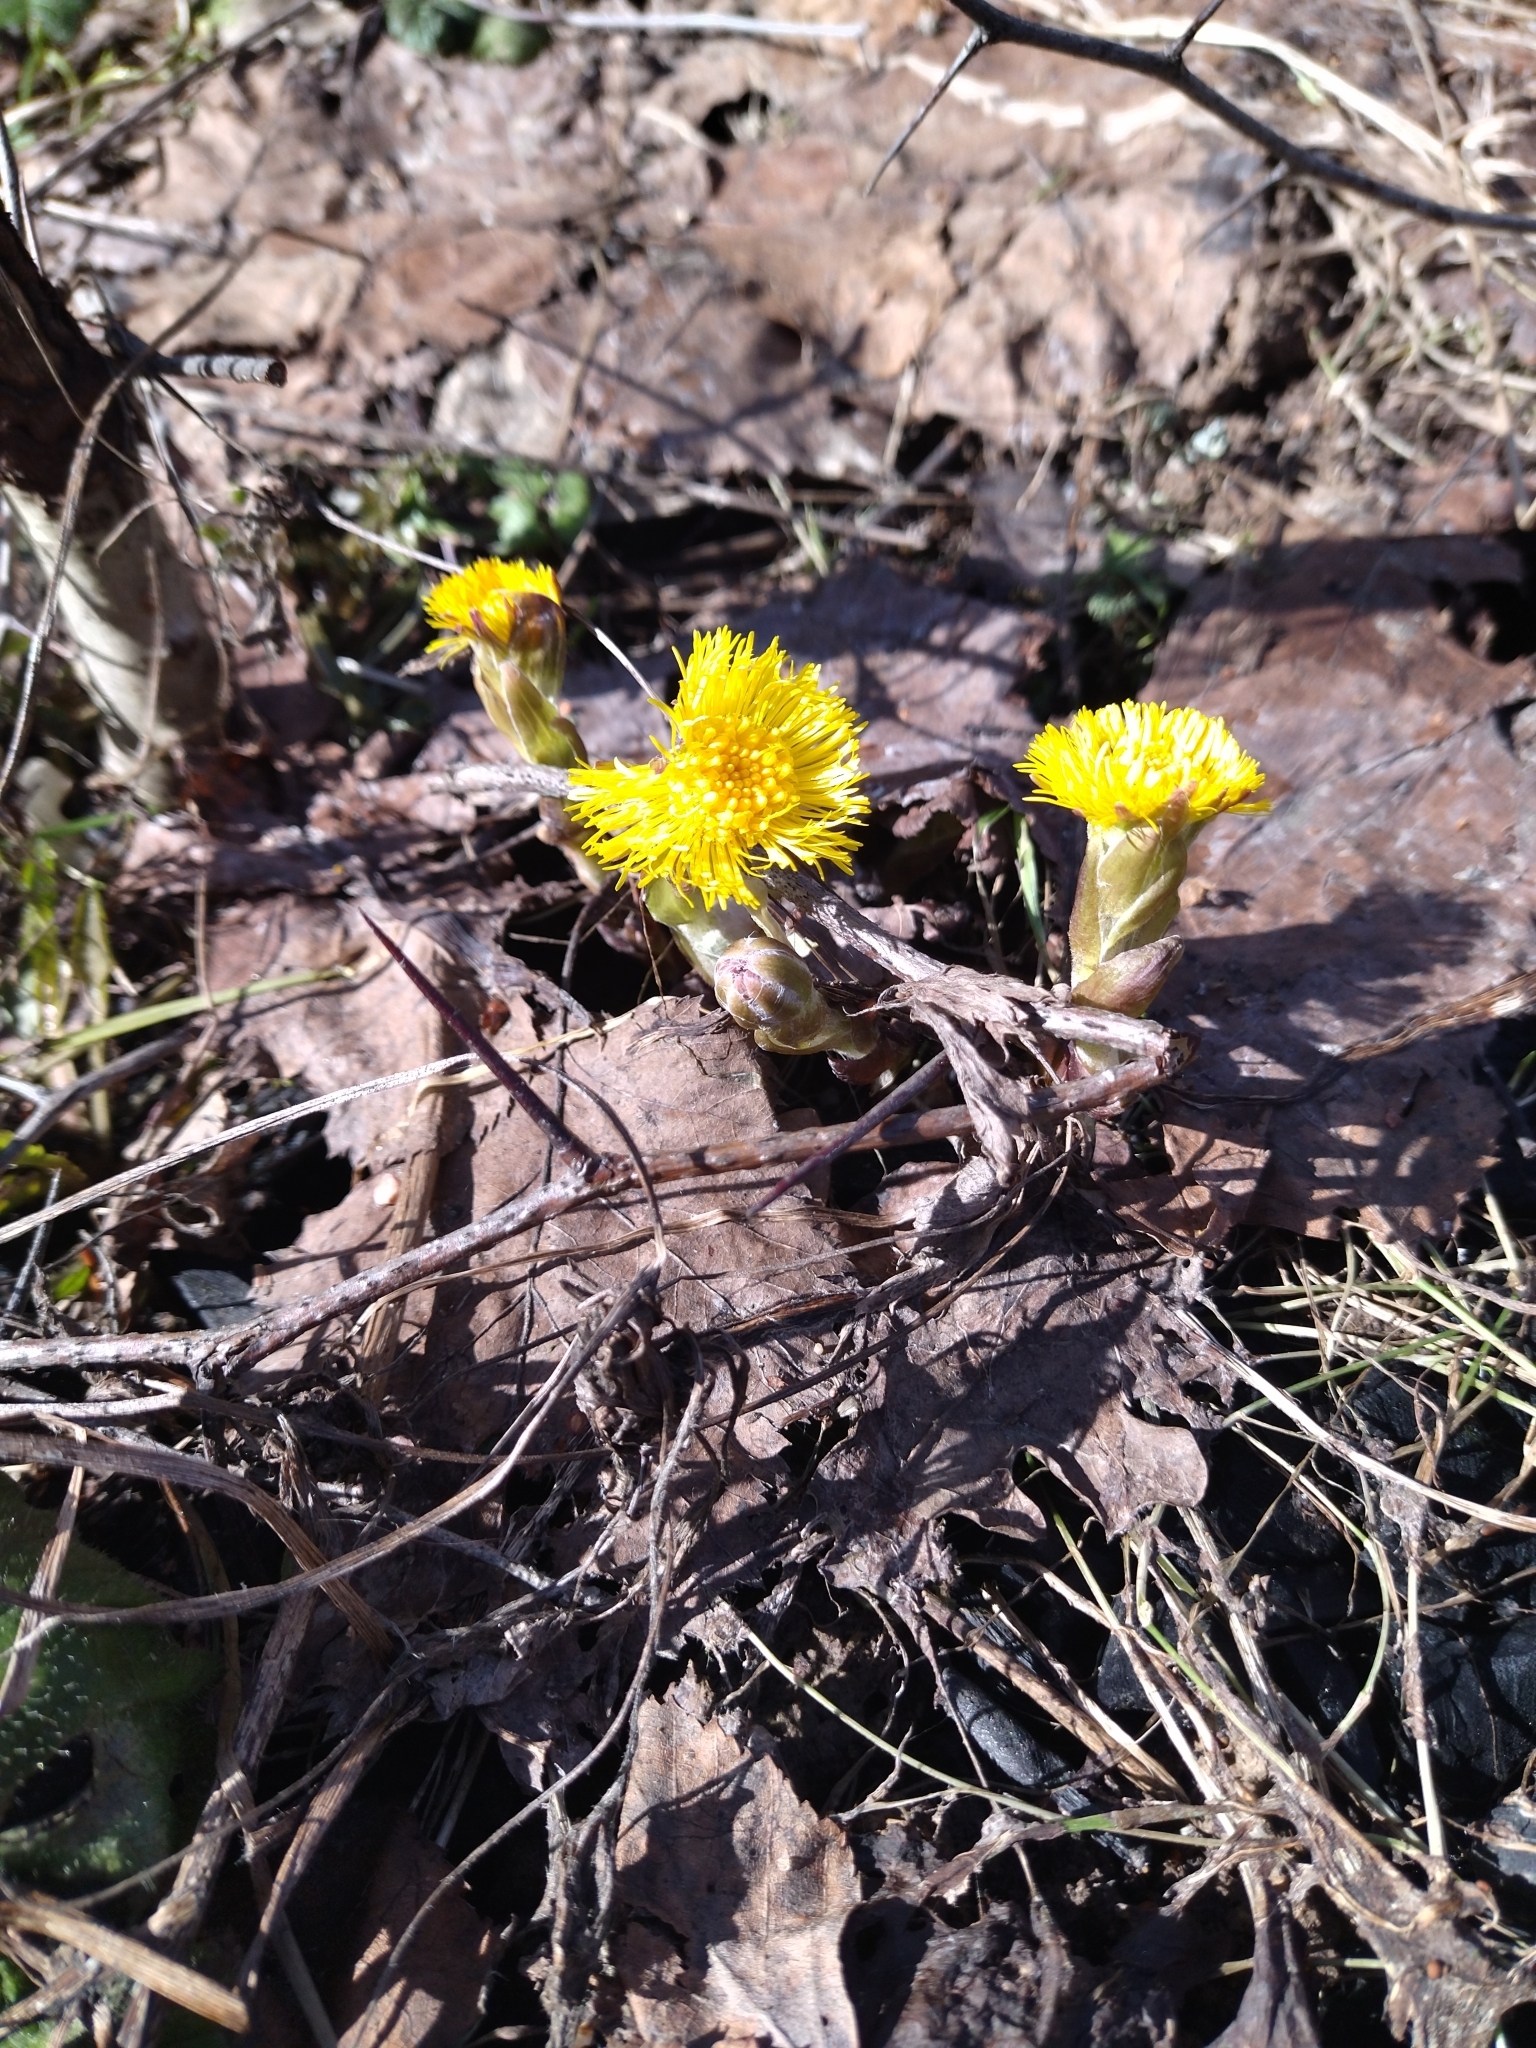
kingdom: Plantae
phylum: Tracheophyta
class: Magnoliopsida
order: Asterales
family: Asteraceae
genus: Tussilago
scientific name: Tussilago farfara
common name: Coltsfoot
